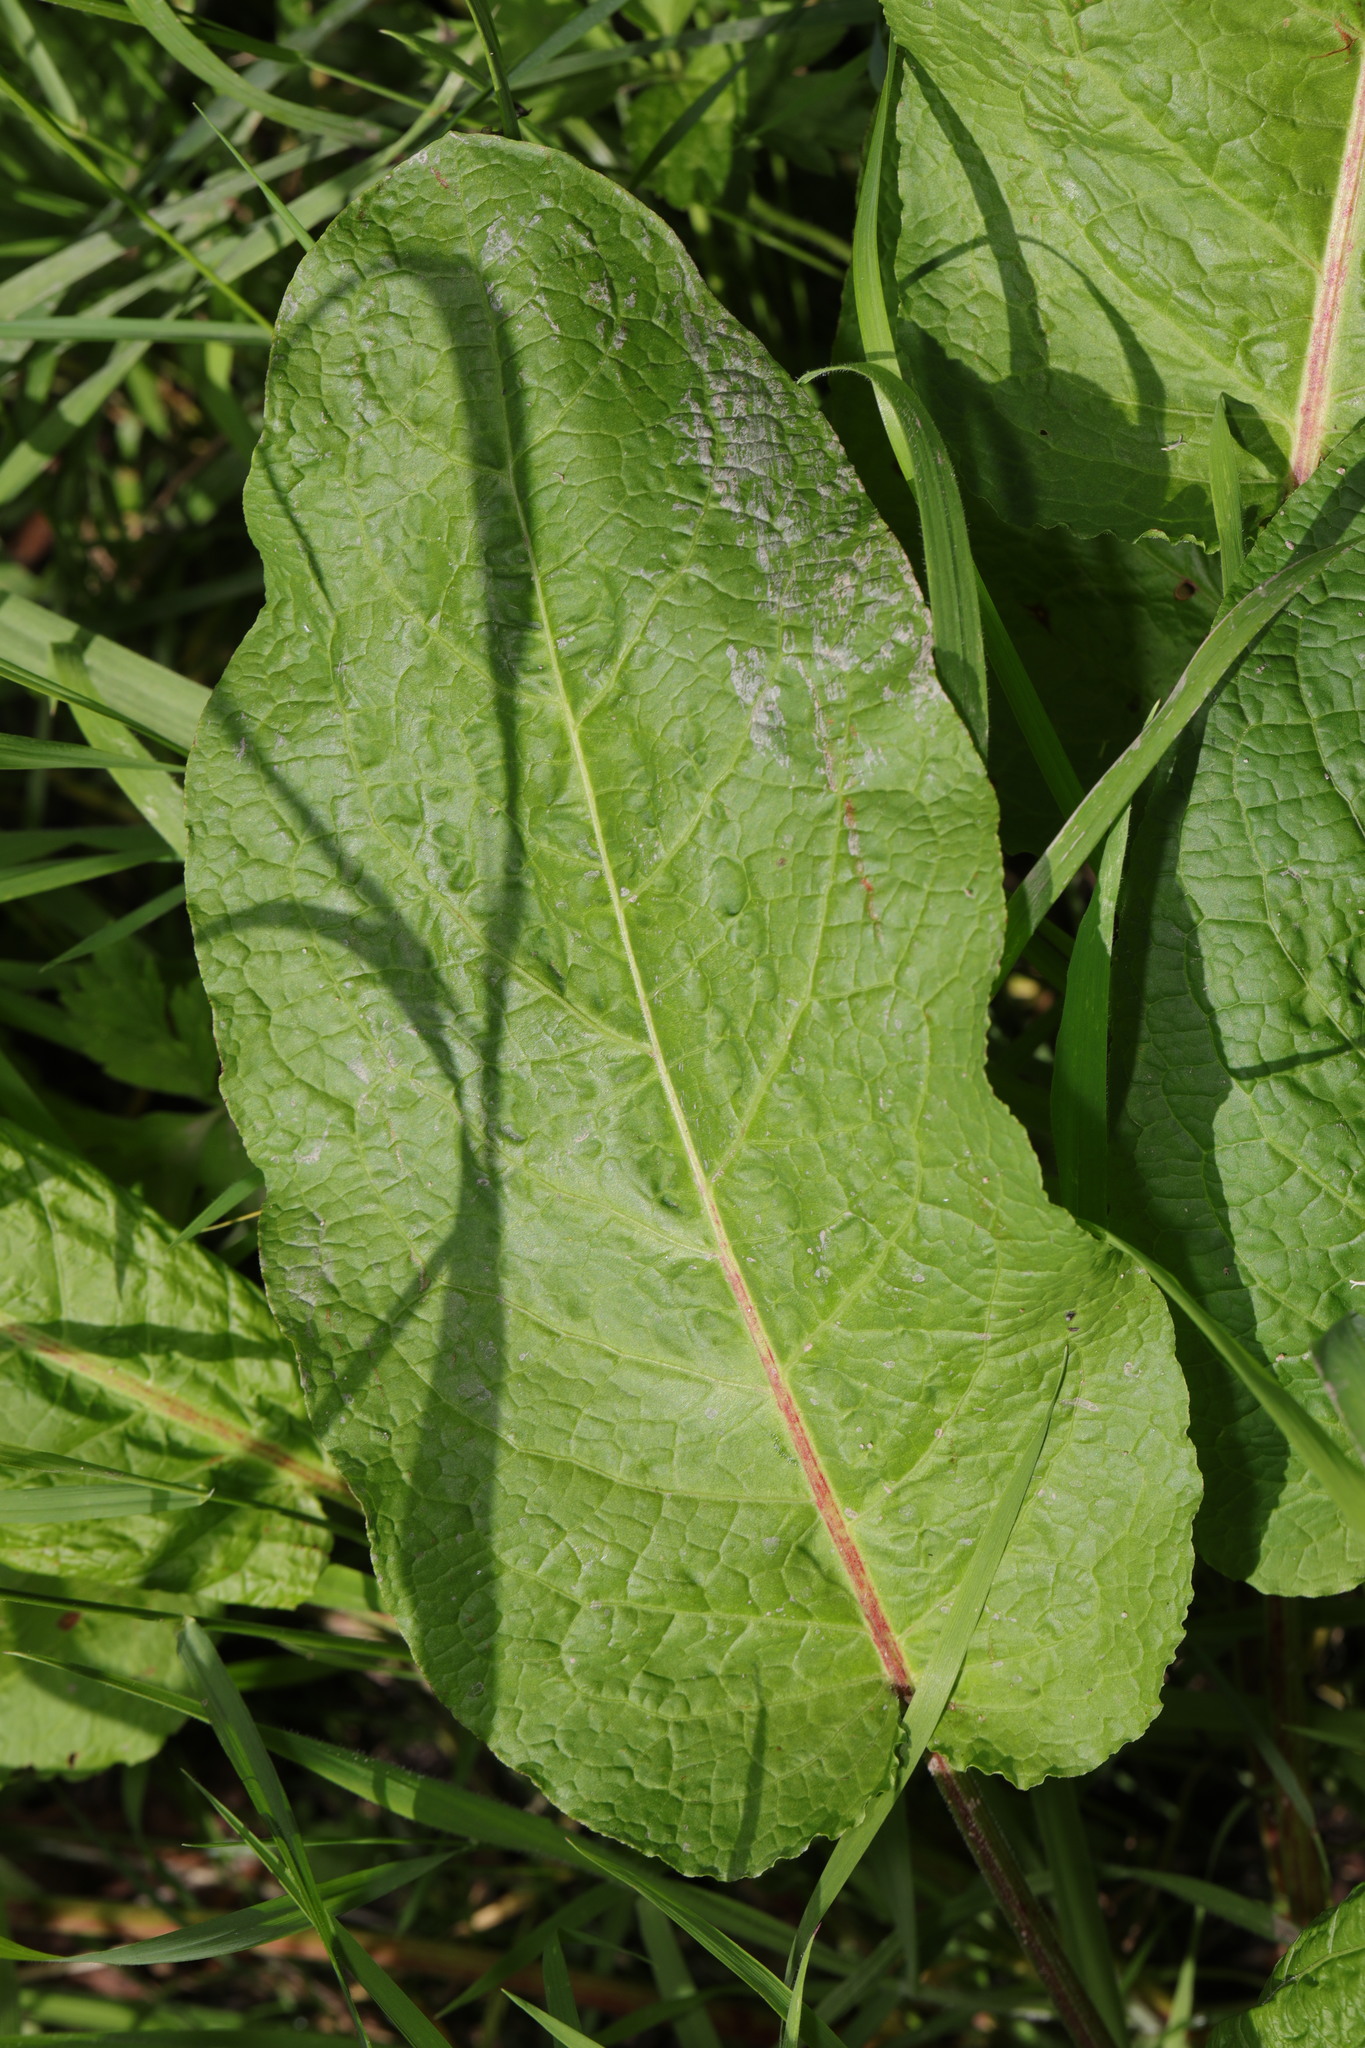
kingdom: Plantae
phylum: Tracheophyta
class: Magnoliopsida
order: Caryophyllales
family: Polygonaceae
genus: Rumex
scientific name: Rumex obtusifolius
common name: Bitter dock
